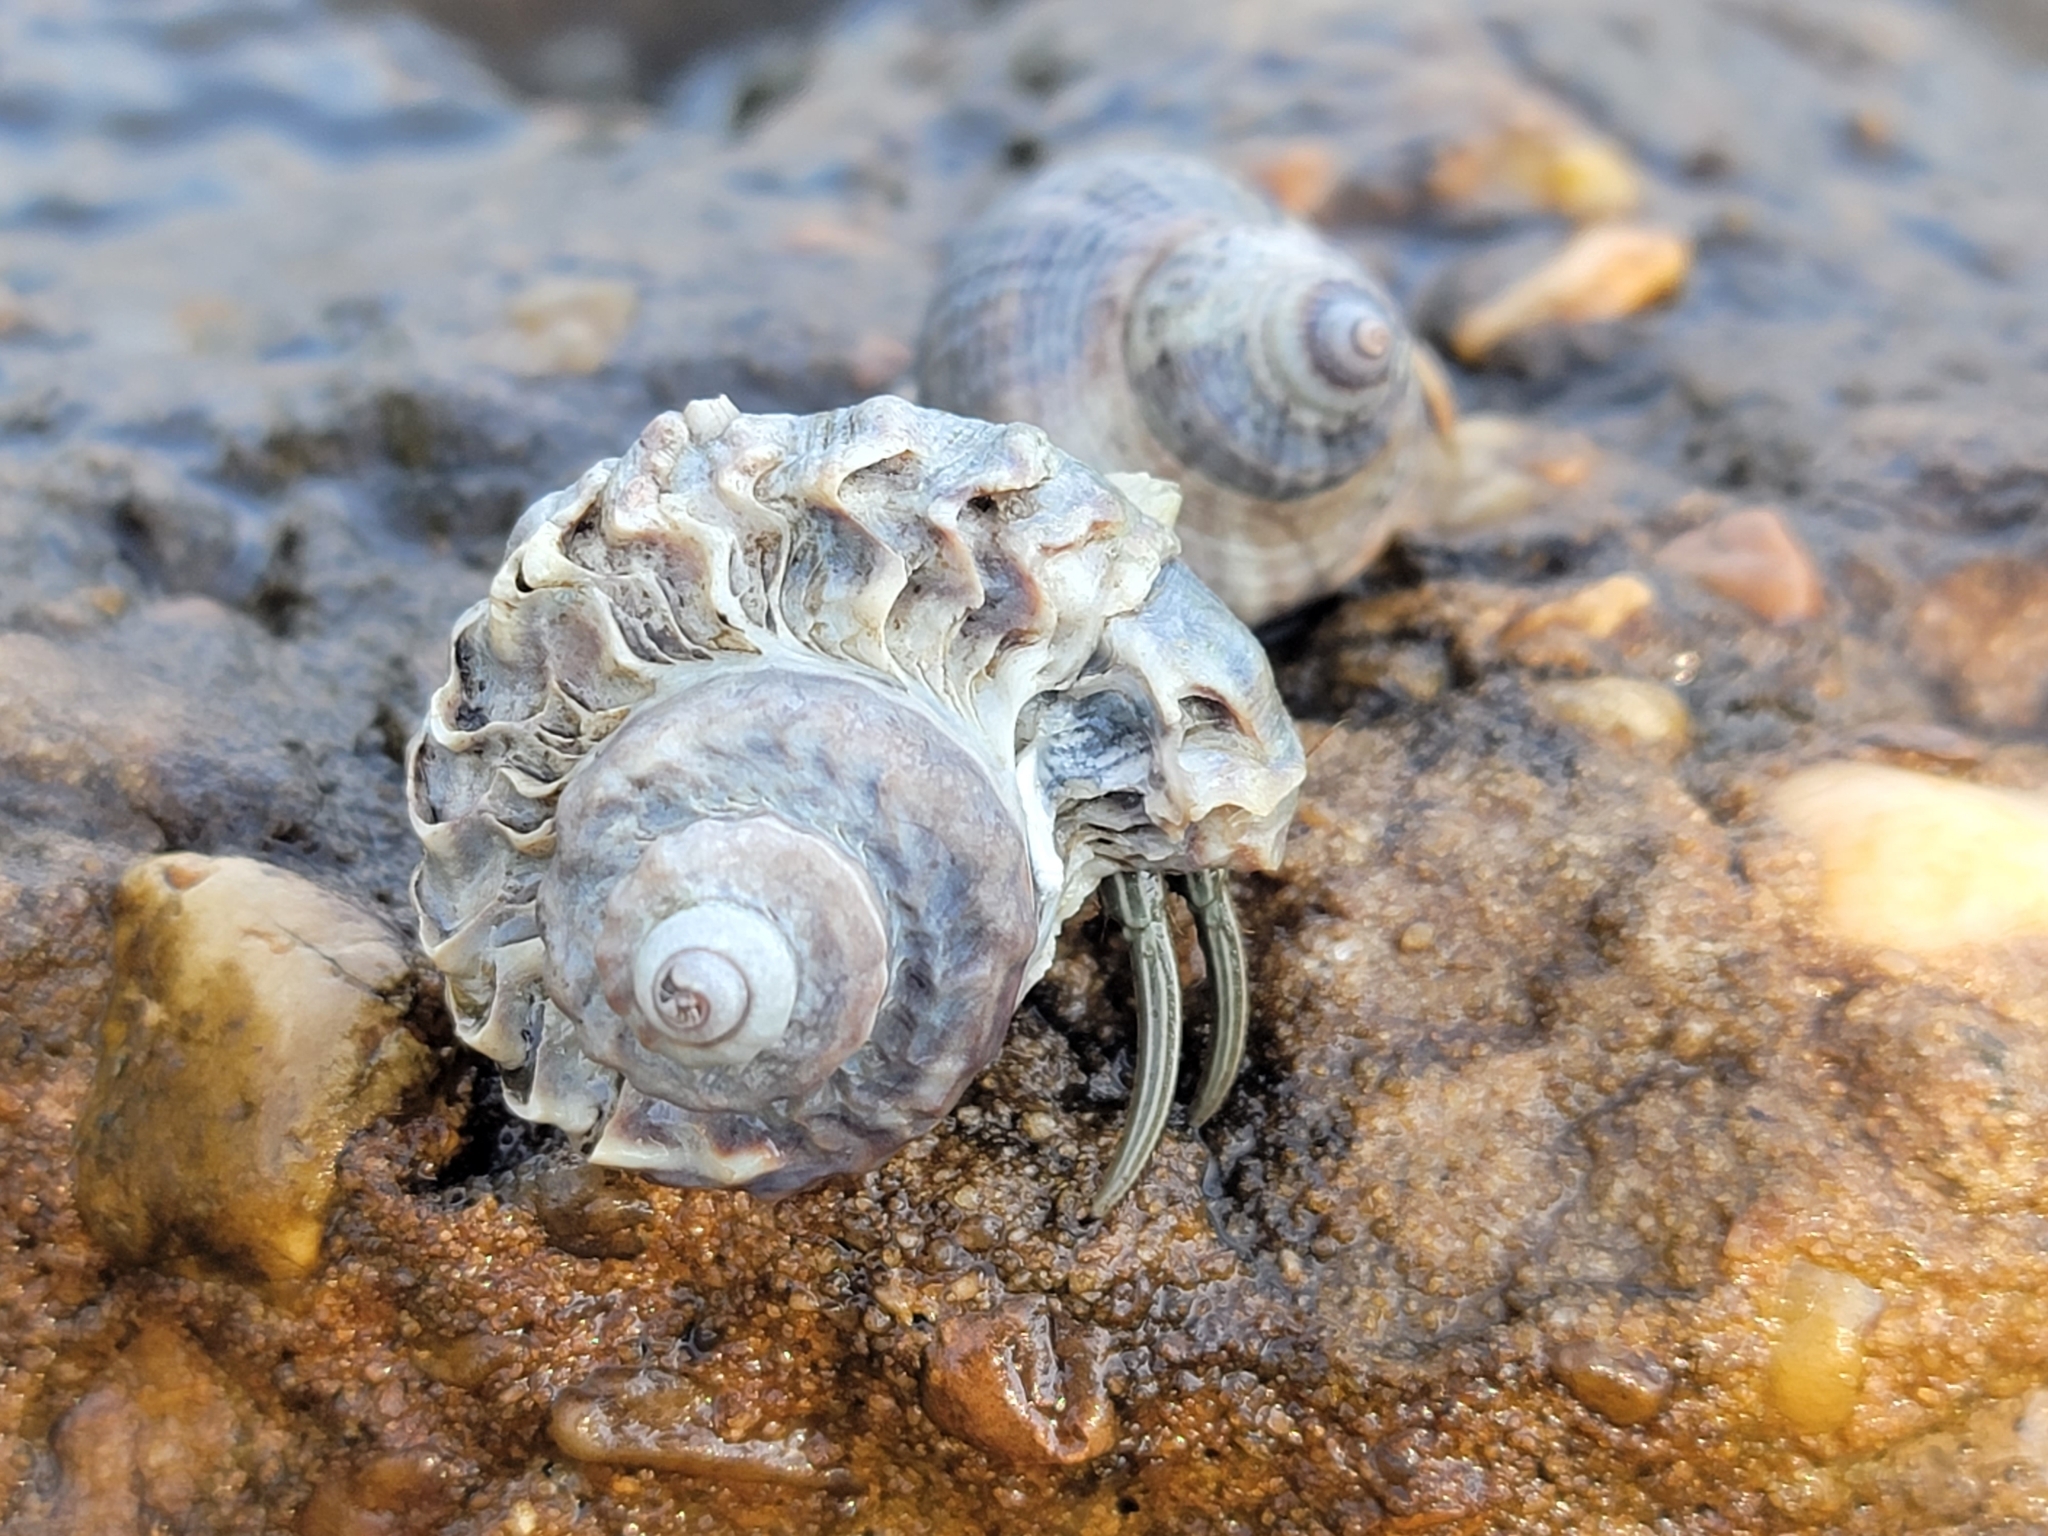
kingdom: Animalia
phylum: Arthropoda
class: Malacostraca
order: Decapoda
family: Diogenidae
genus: Clibanarius
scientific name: Clibanarius vittatus
